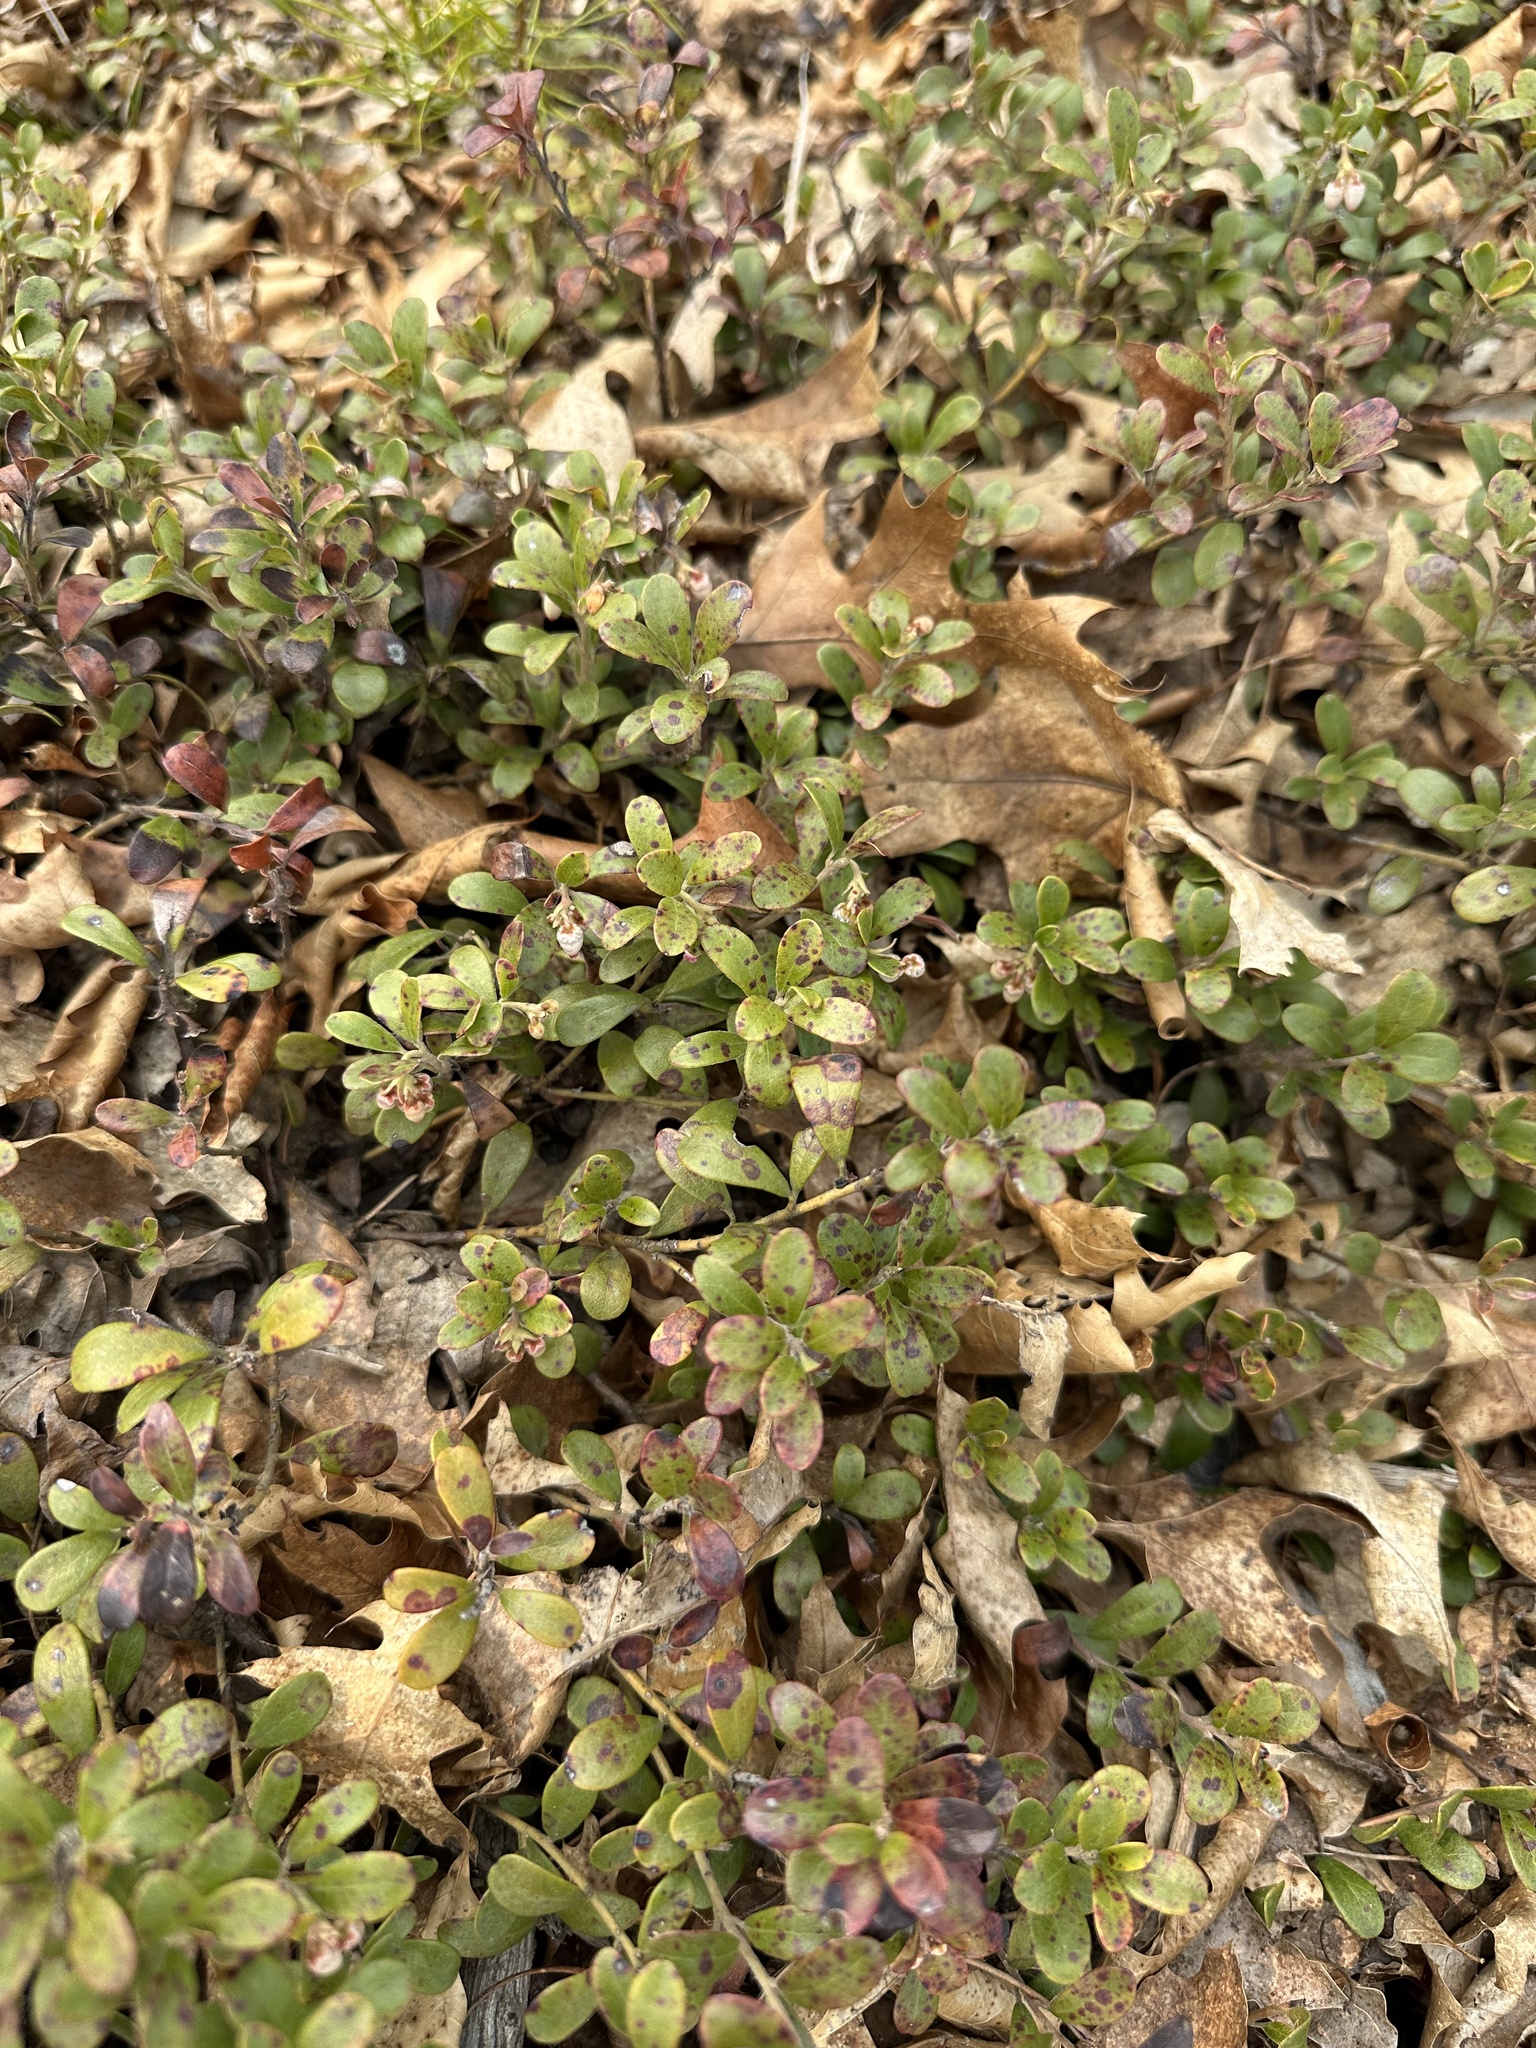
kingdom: Plantae
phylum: Tracheophyta
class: Magnoliopsida
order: Ericales
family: Ericaceae
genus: Arctostaphylos
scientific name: Arctostaphylos uva-ursi
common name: Bearberry
